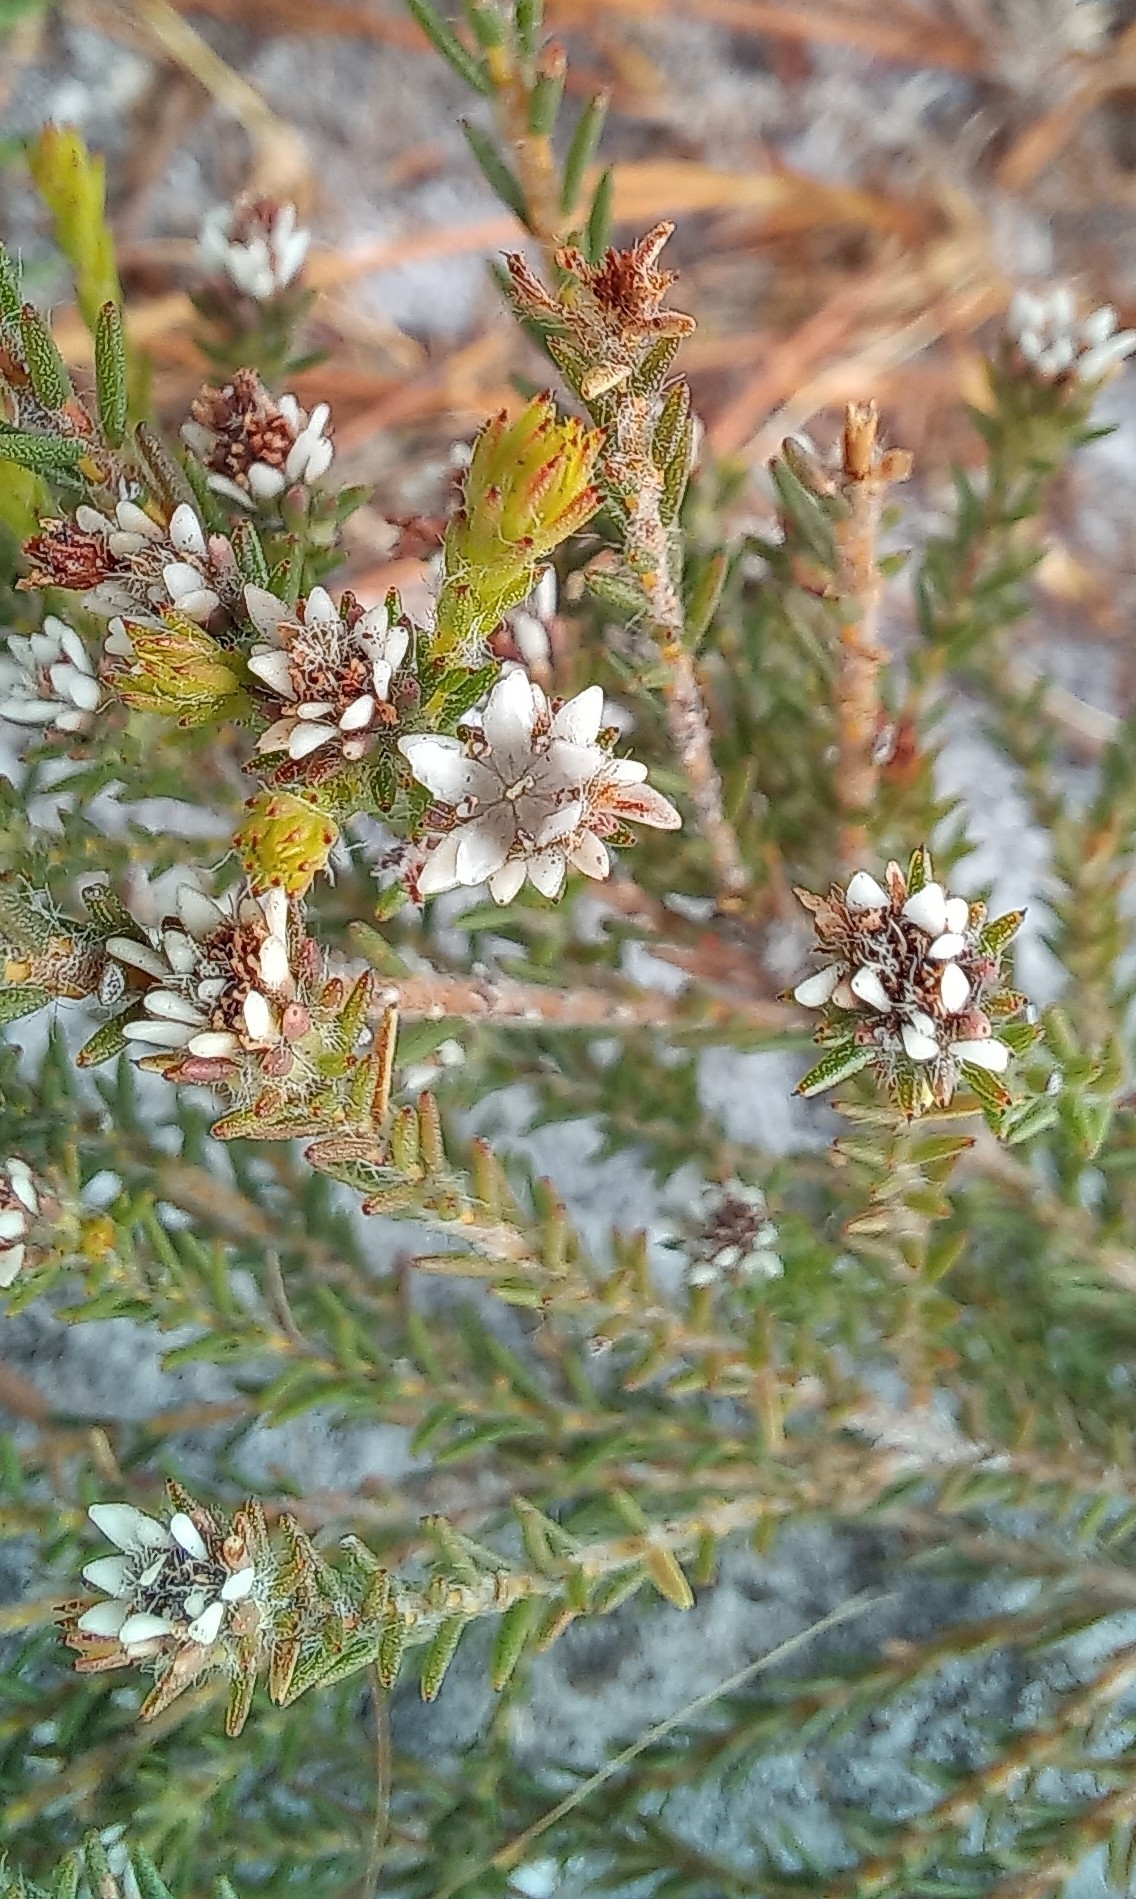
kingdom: Plantae
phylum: Tracheophyta
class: Magnoliopsida
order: Bruniales
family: Bruniaceae
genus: Staavia
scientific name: Staavia radiata
